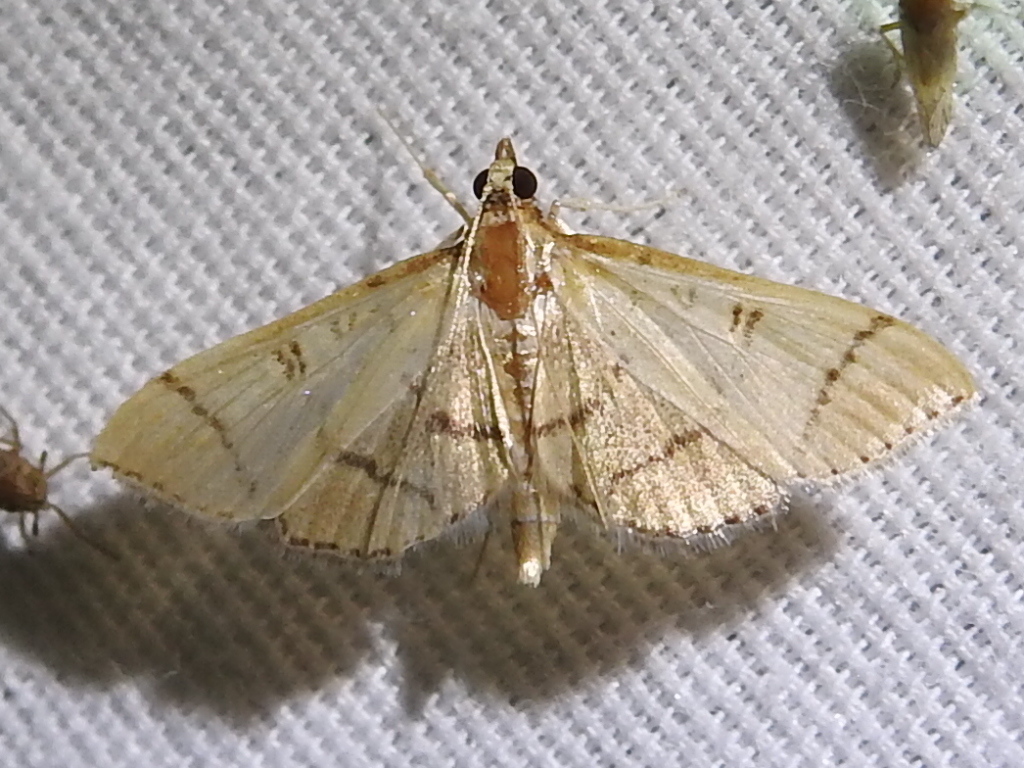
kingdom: Animalia
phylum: Arthropoda
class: Insecta
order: Lepidoptera
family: Crambidae
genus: Lamprosema
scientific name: Lamprosema Blepharomastix ranalis
